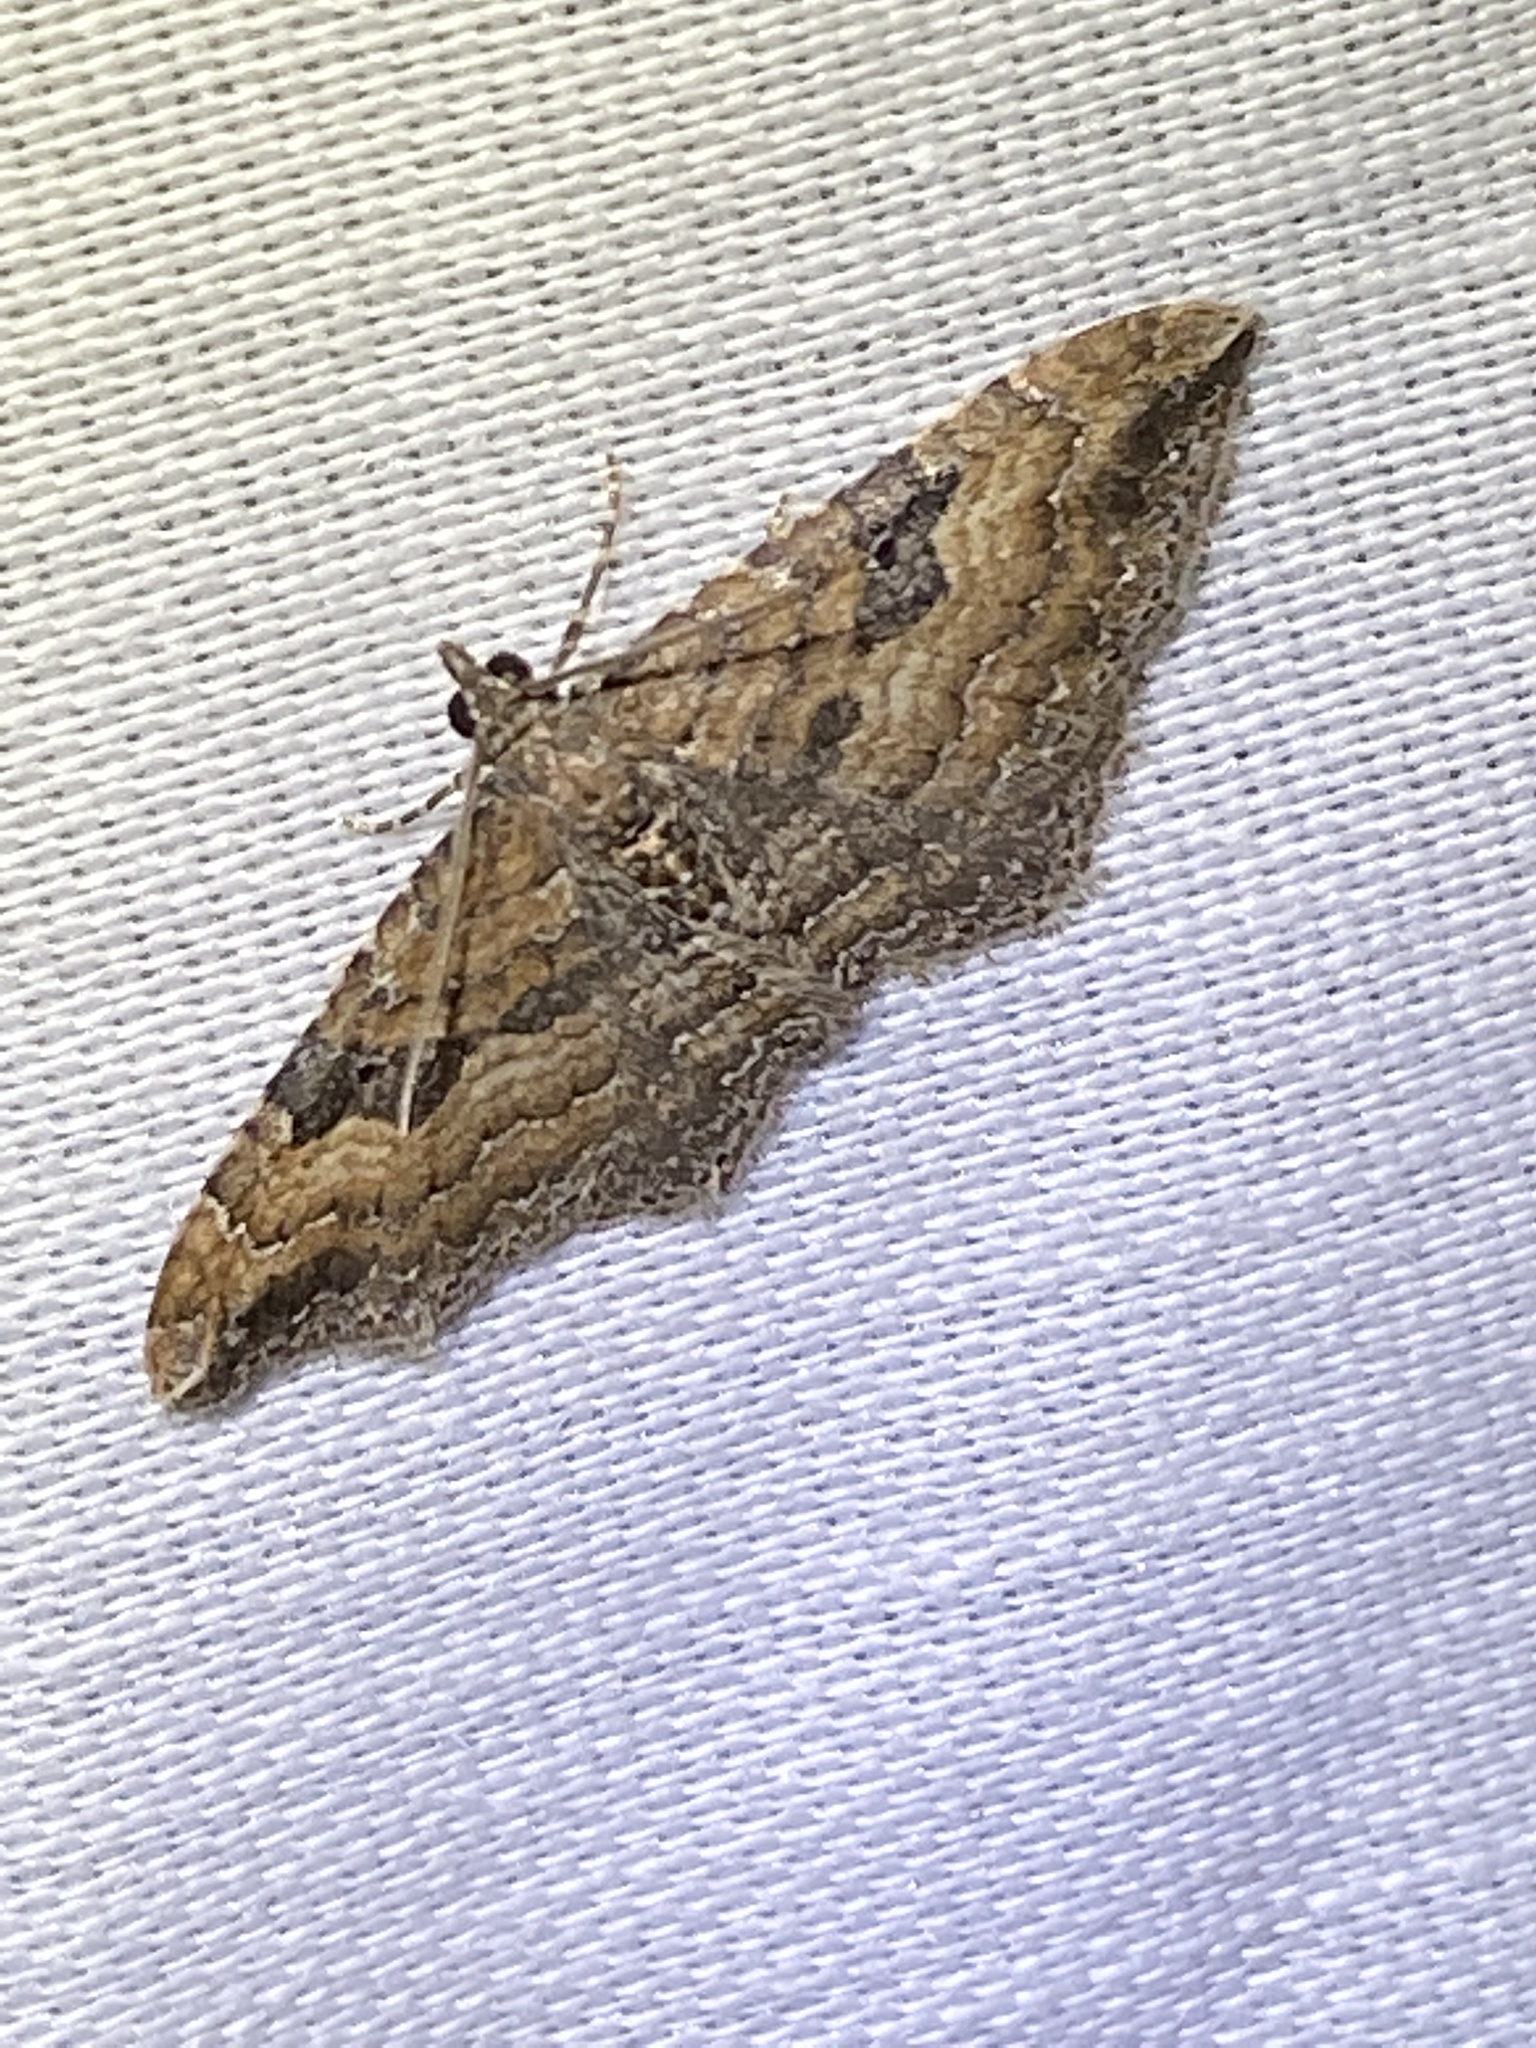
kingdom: Animalia
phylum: Arthropoda
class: Insecta
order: Lepidoptera
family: Geometridae
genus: Orthonama
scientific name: Orthonama obstipata
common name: The gem
